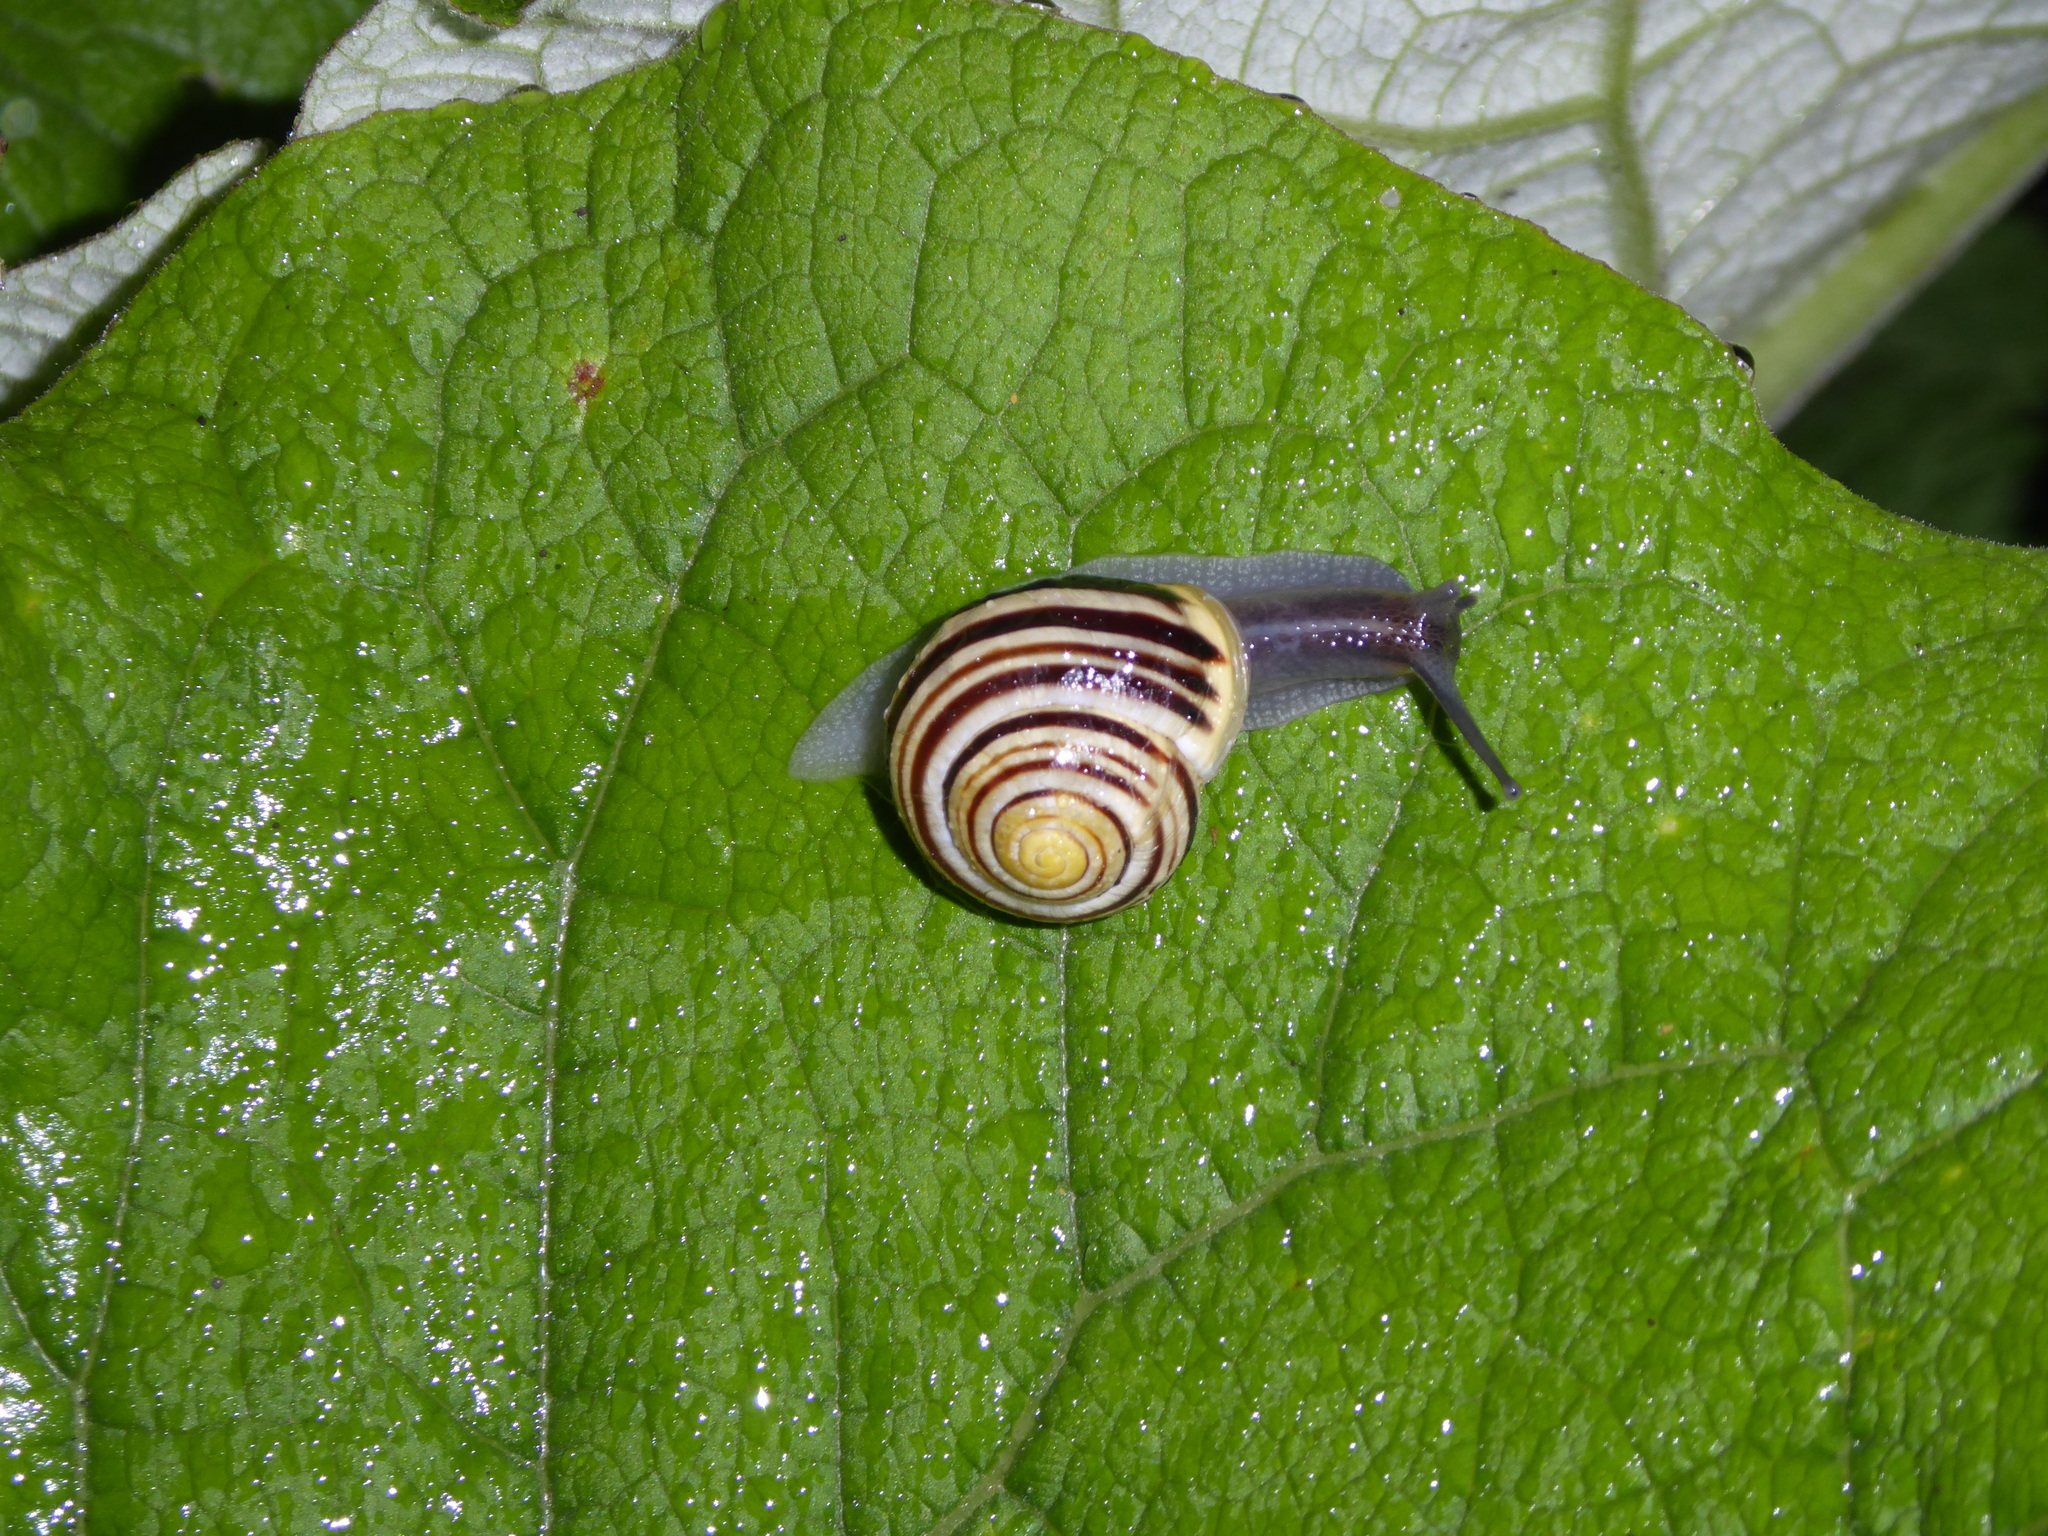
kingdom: Animalia
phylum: Mollusca
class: Gastropoda
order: Stylommatophora
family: Helicidae
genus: Cepaea
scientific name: Cepaea hortensis
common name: White-lip gardensnail
